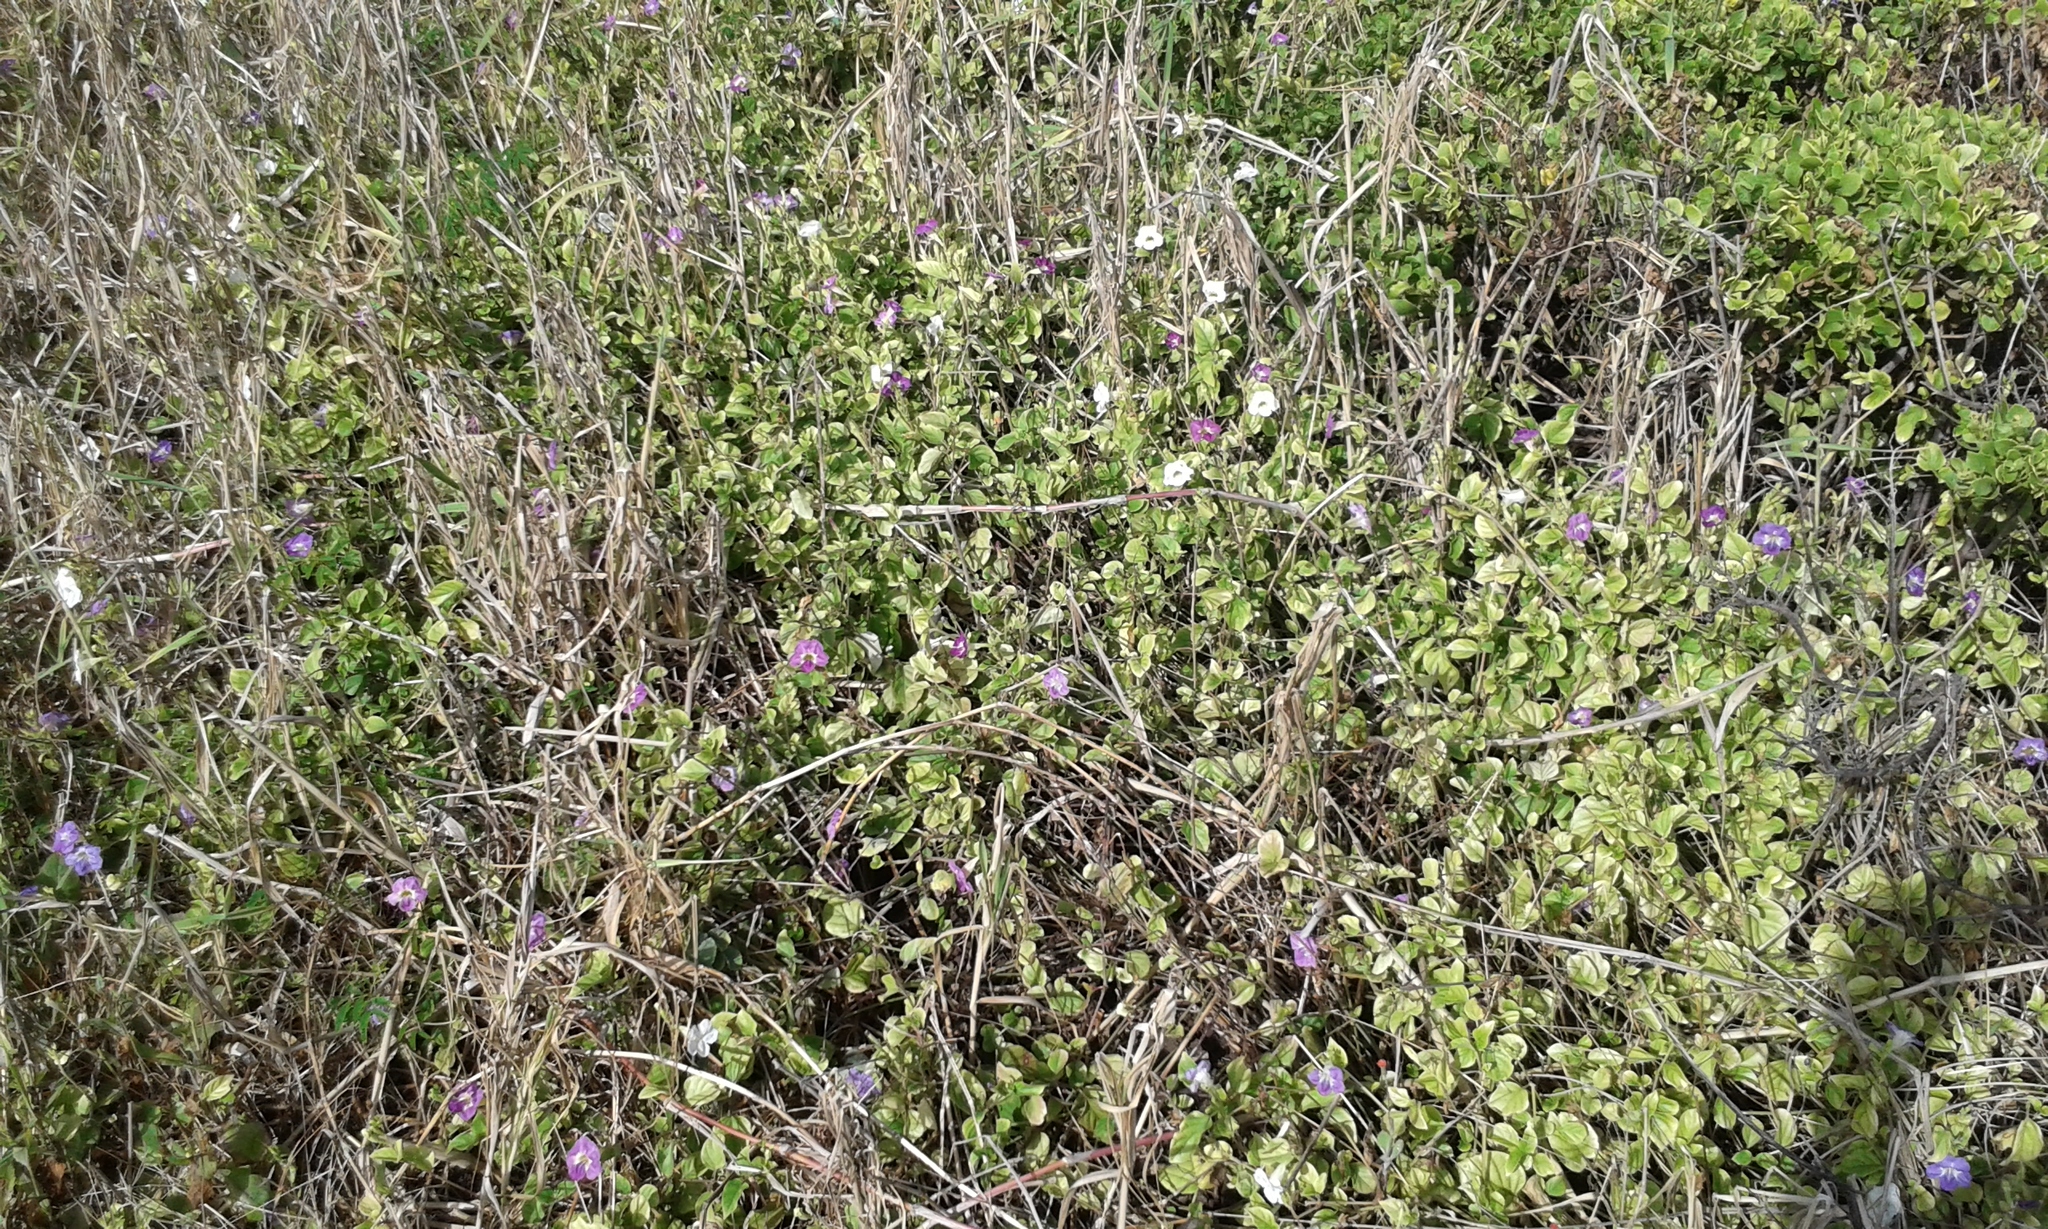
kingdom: Plantae
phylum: Tracheophyta
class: Magnoliopsida
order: Lamiales
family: Acanthaceae
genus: Asystasia
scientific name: Asystasia gangetica
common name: Chinese violet
